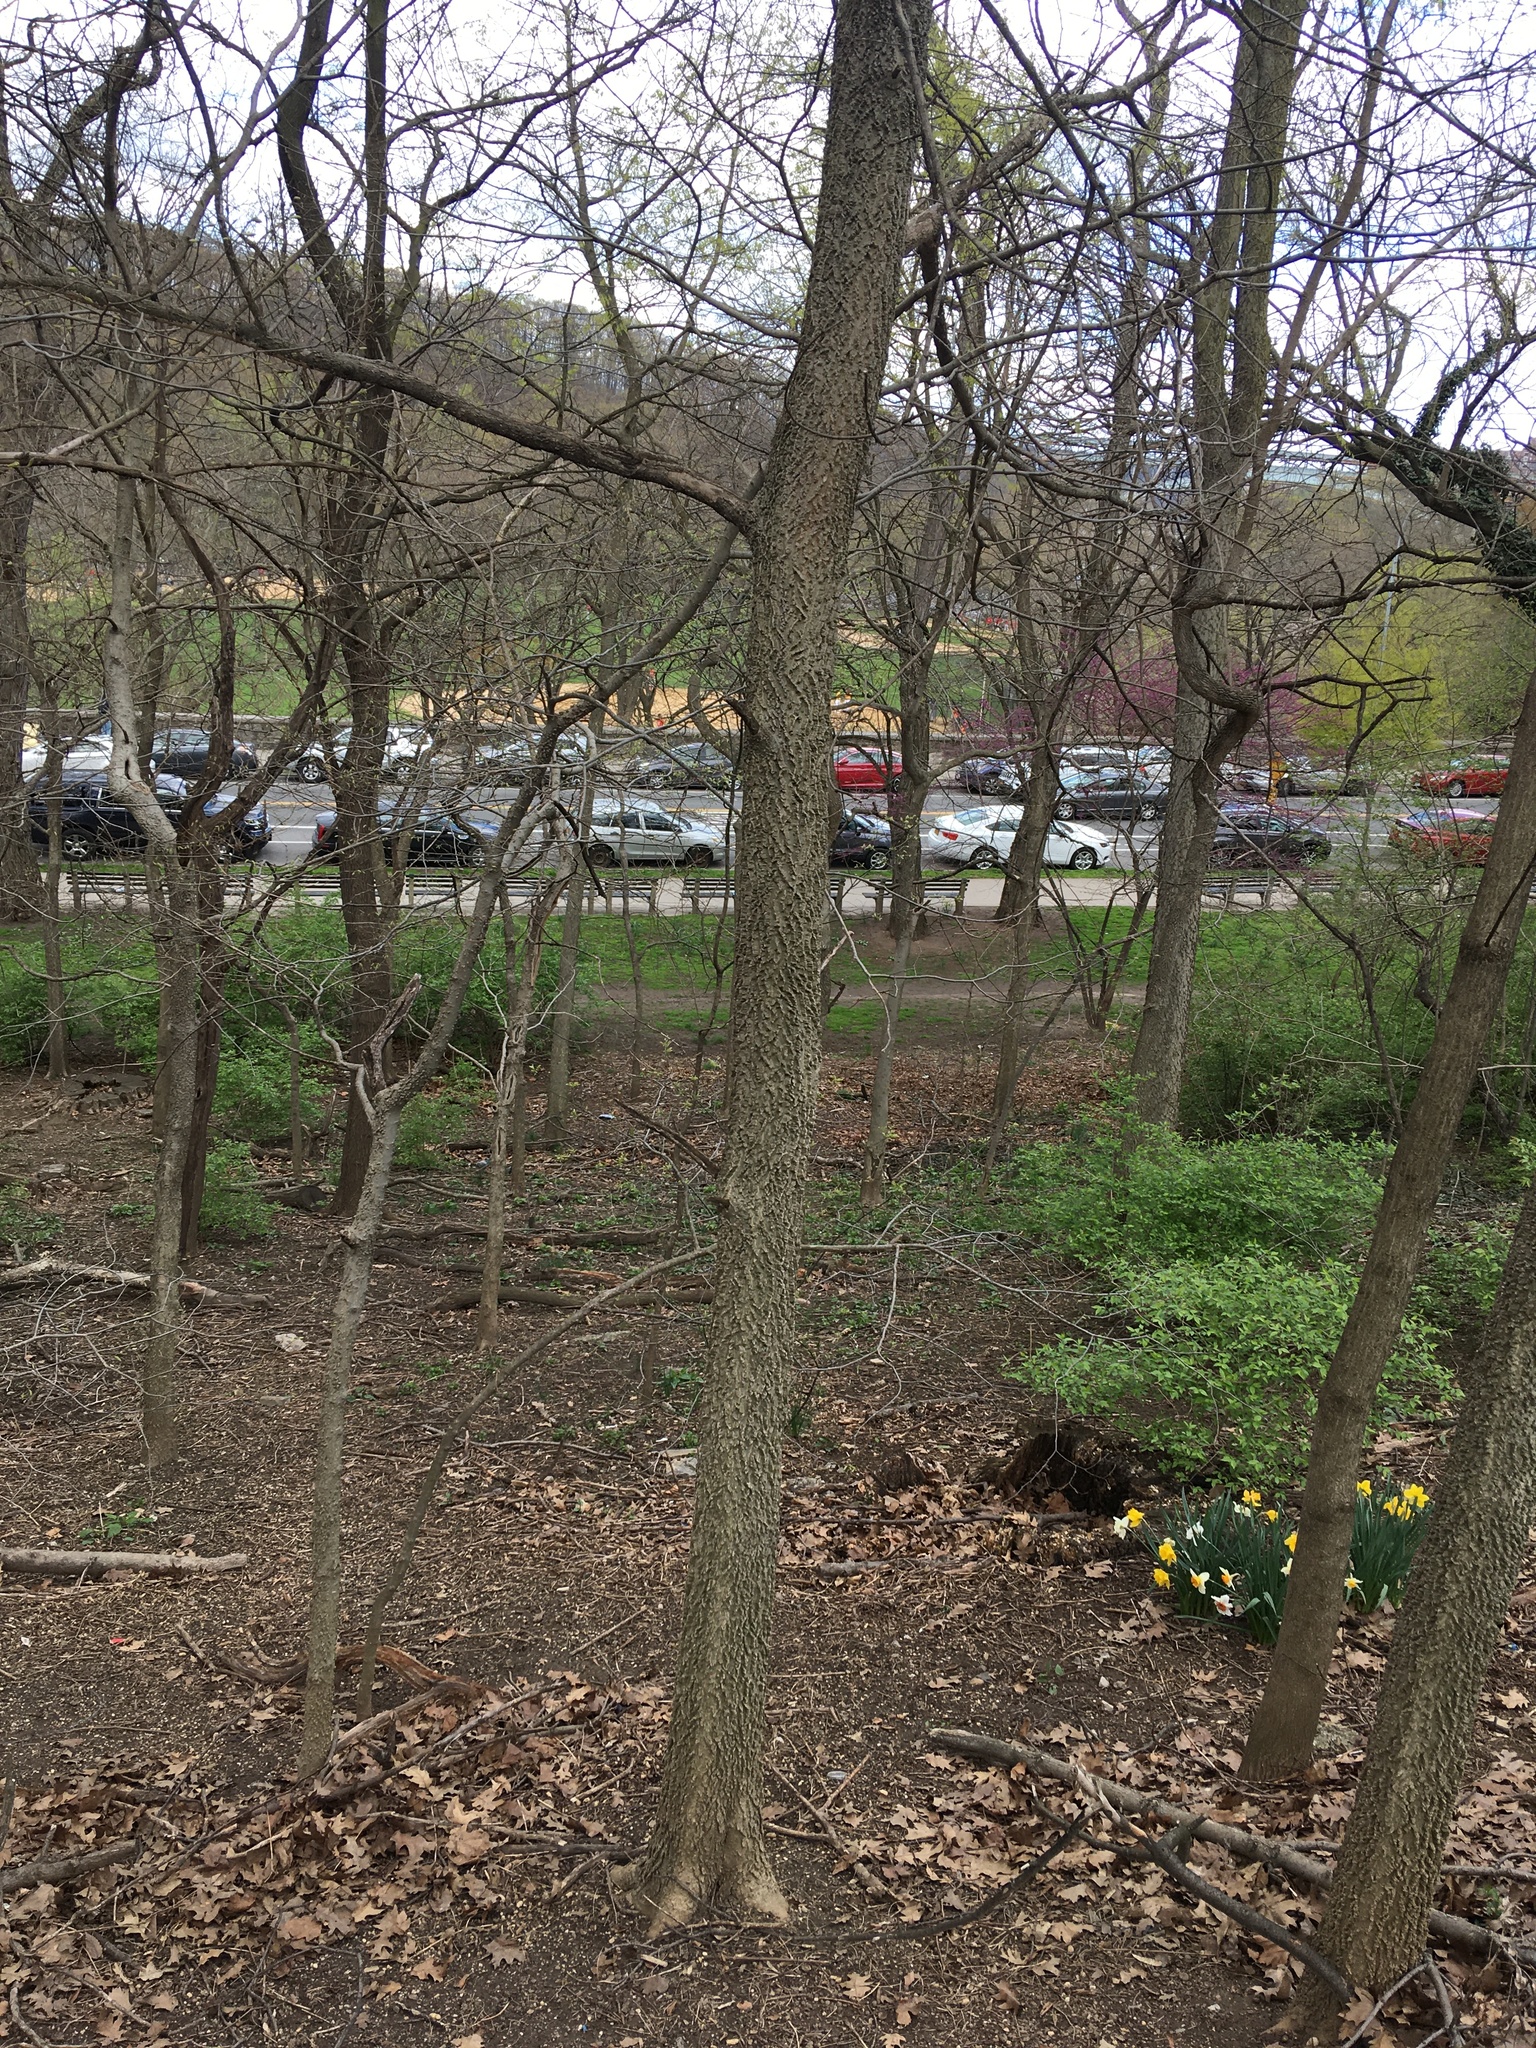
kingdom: Plantae
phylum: Tracheophyta
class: Magnoliopsida
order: Rosales
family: Cannabaceae
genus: Celtis
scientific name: Celtis occidentalis
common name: Common hackberry
